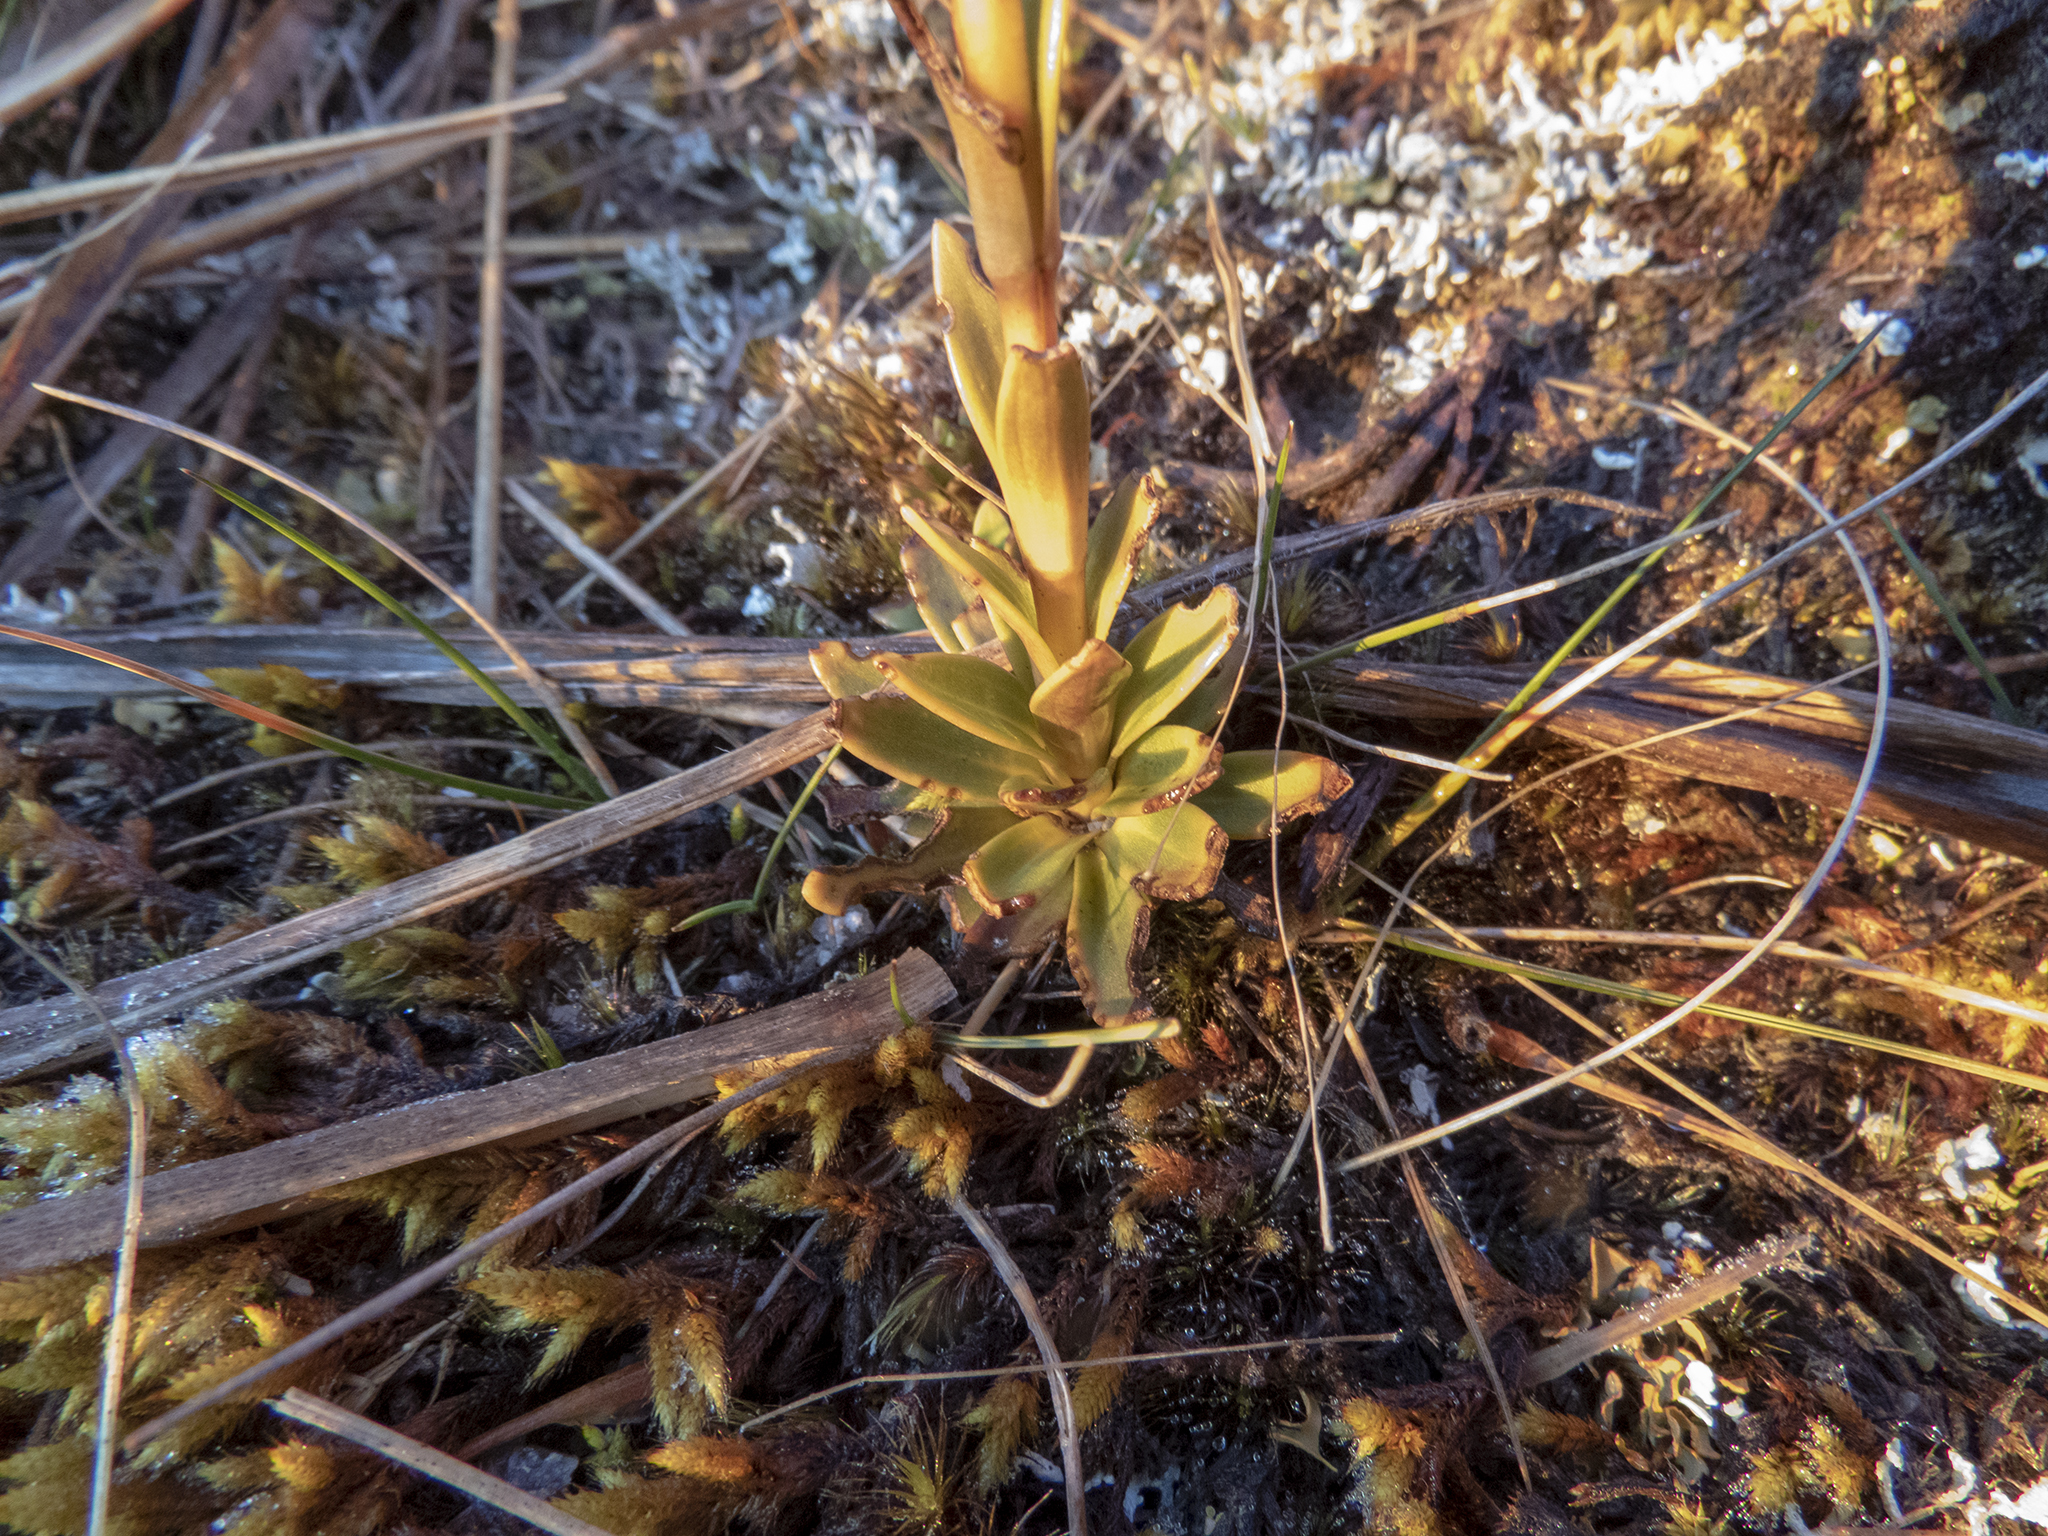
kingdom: Plantae
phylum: Tracheophyta
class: Magnoliopsida
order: Gentianales
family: Gentianaceae
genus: Gentianella
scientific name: Gentianella impressinervia
